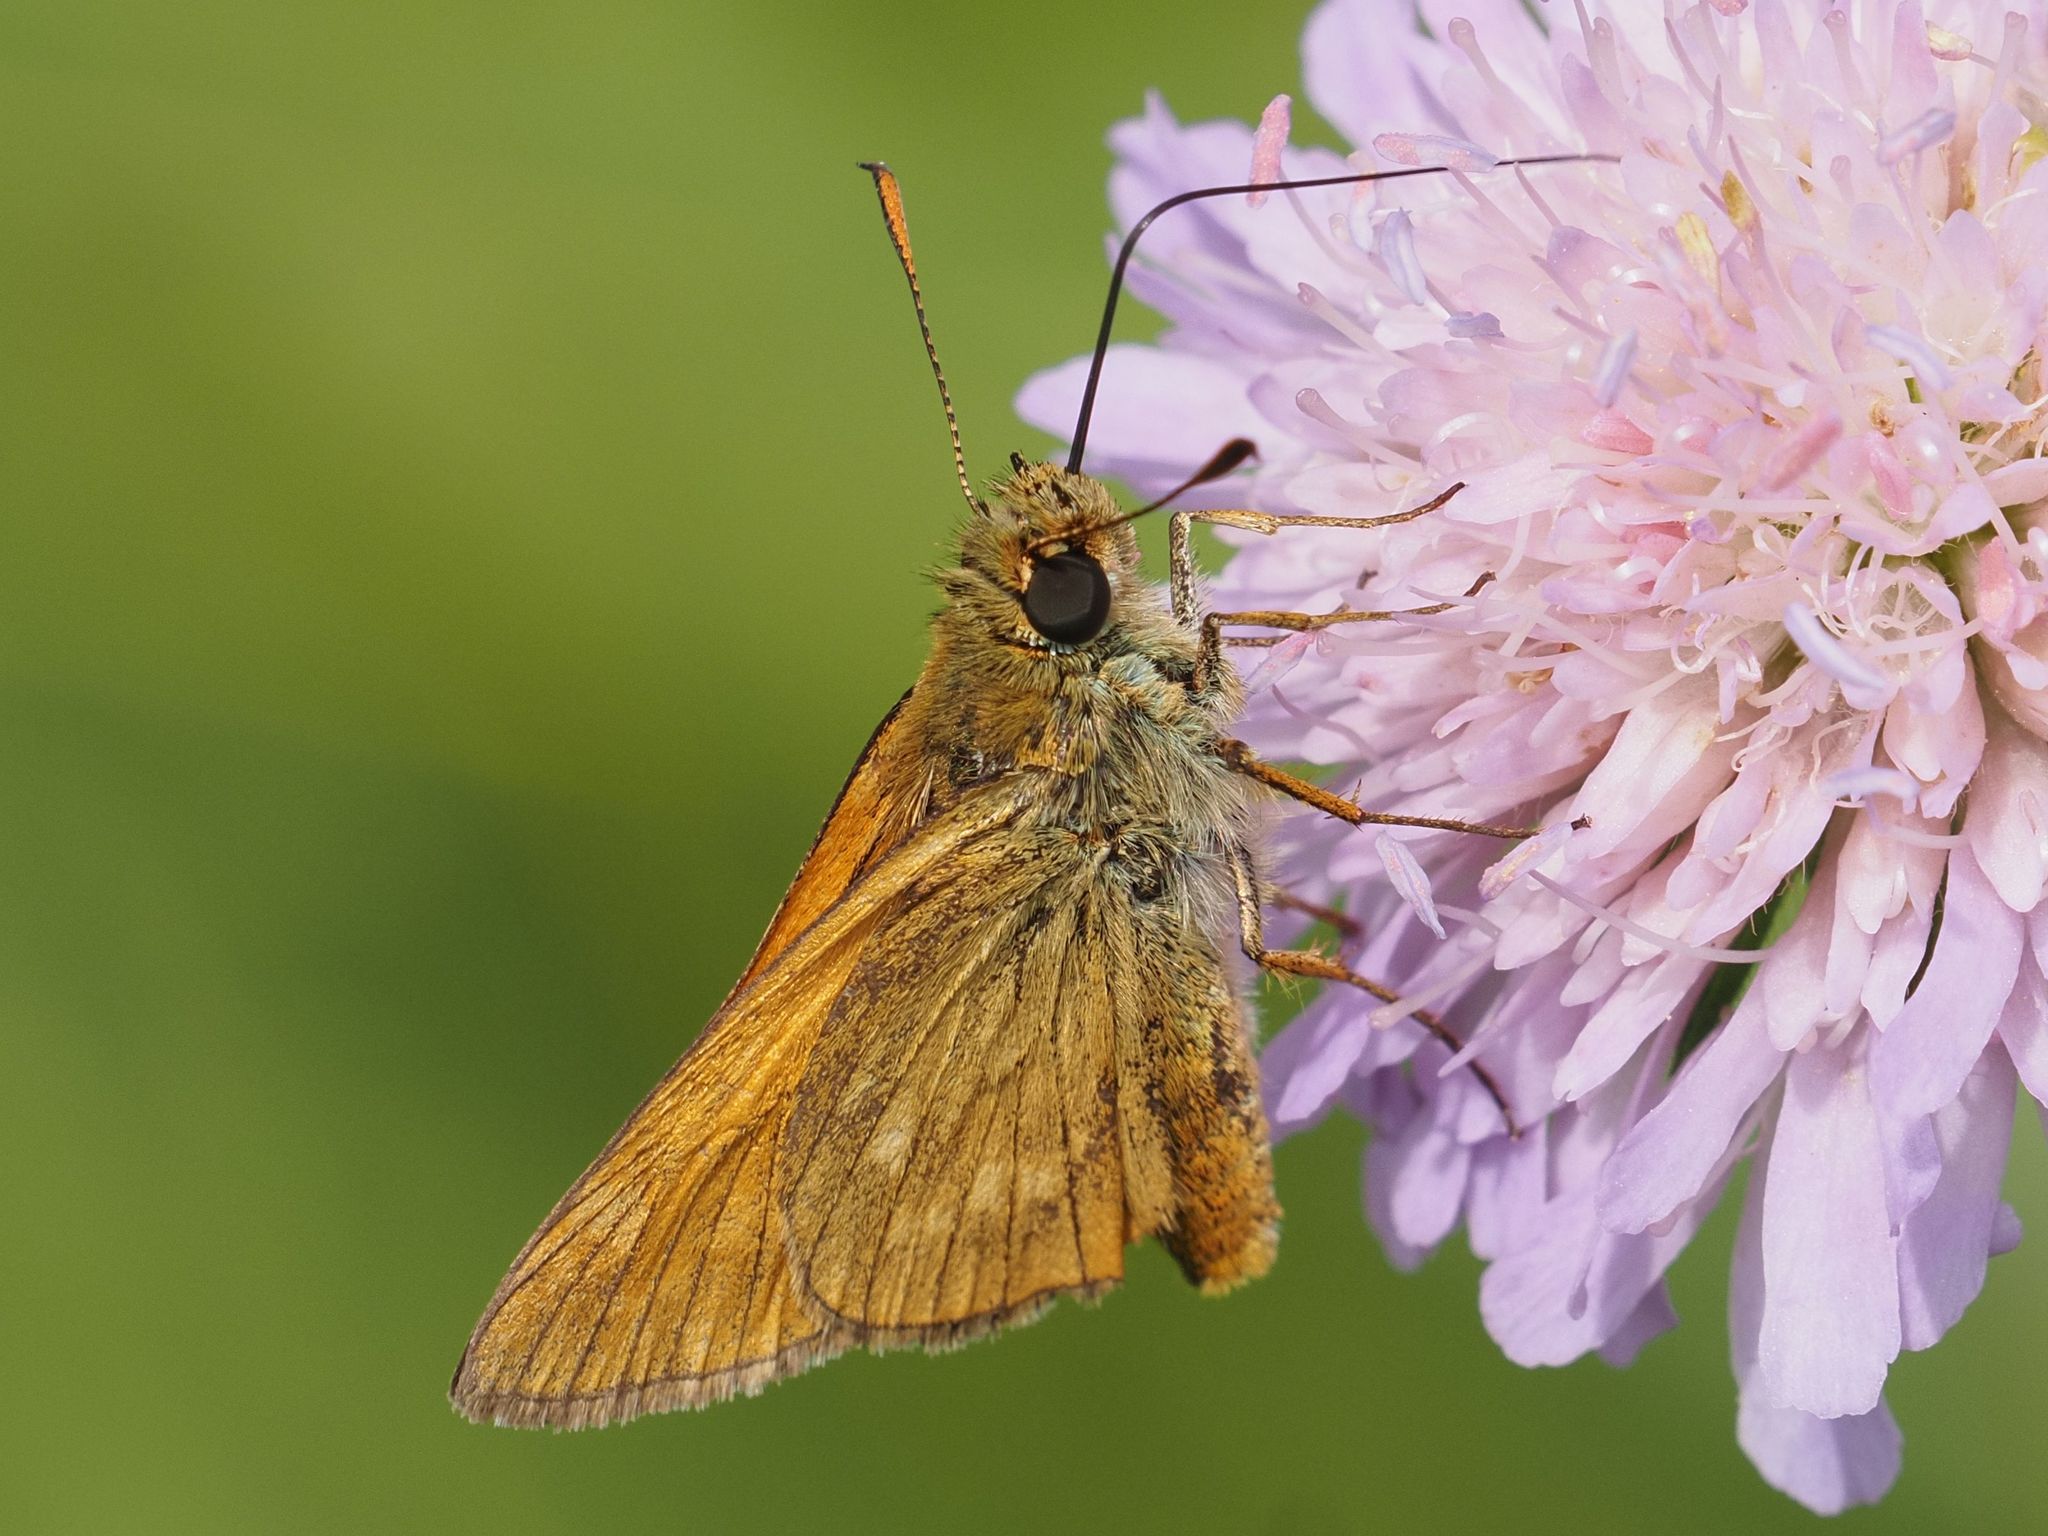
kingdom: Animalia
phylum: Arthropoda
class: Insecta
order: Lepidoptera
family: Hesperiidae
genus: Ochlodes
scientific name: Ochlodes venata
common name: Large skipper
